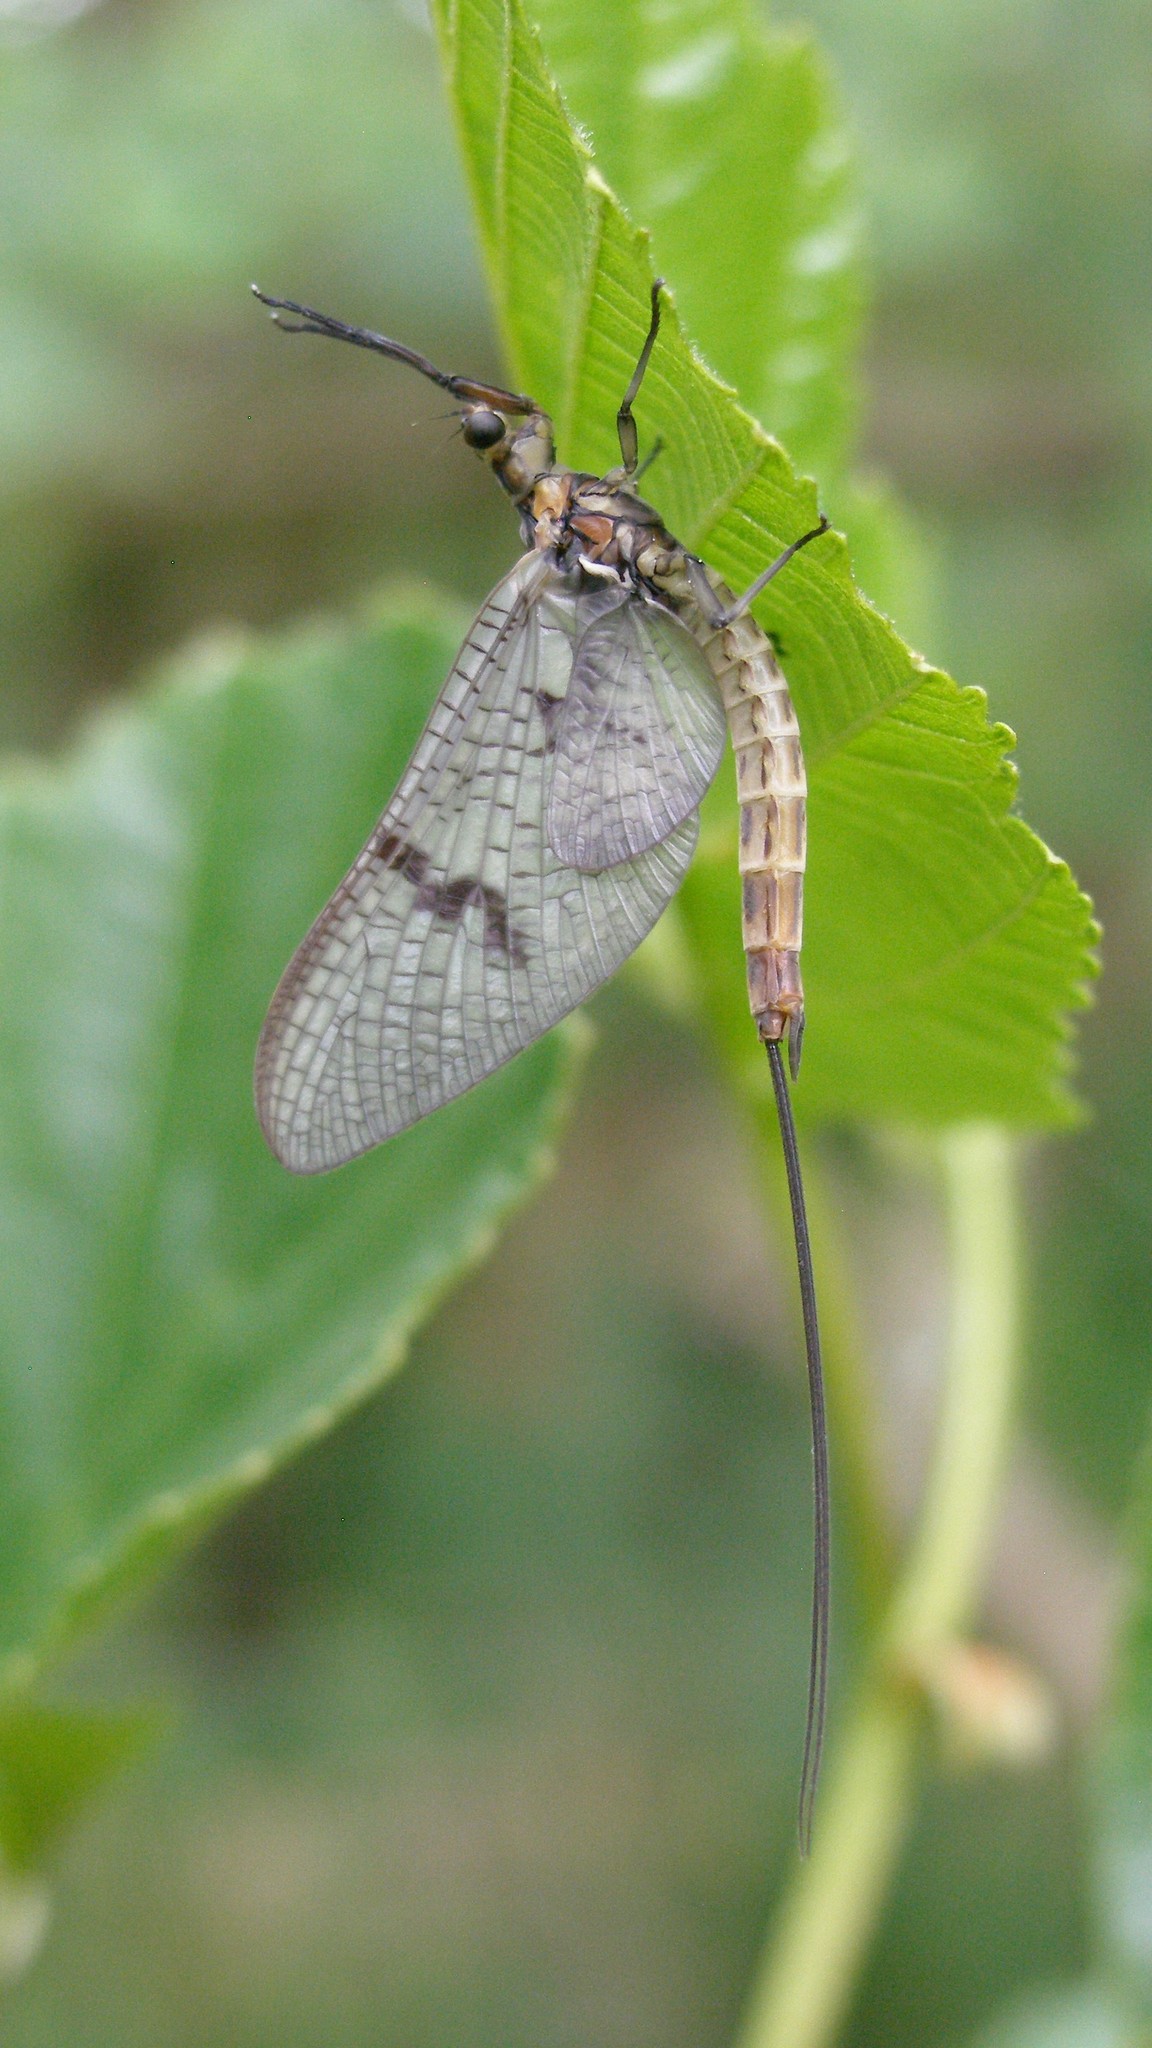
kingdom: Animalia
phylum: Arthropoda
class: Insecta
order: Ephemeroptera
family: Ephemeridae
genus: Ephemera
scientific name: Ephemera danica
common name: Green dun
